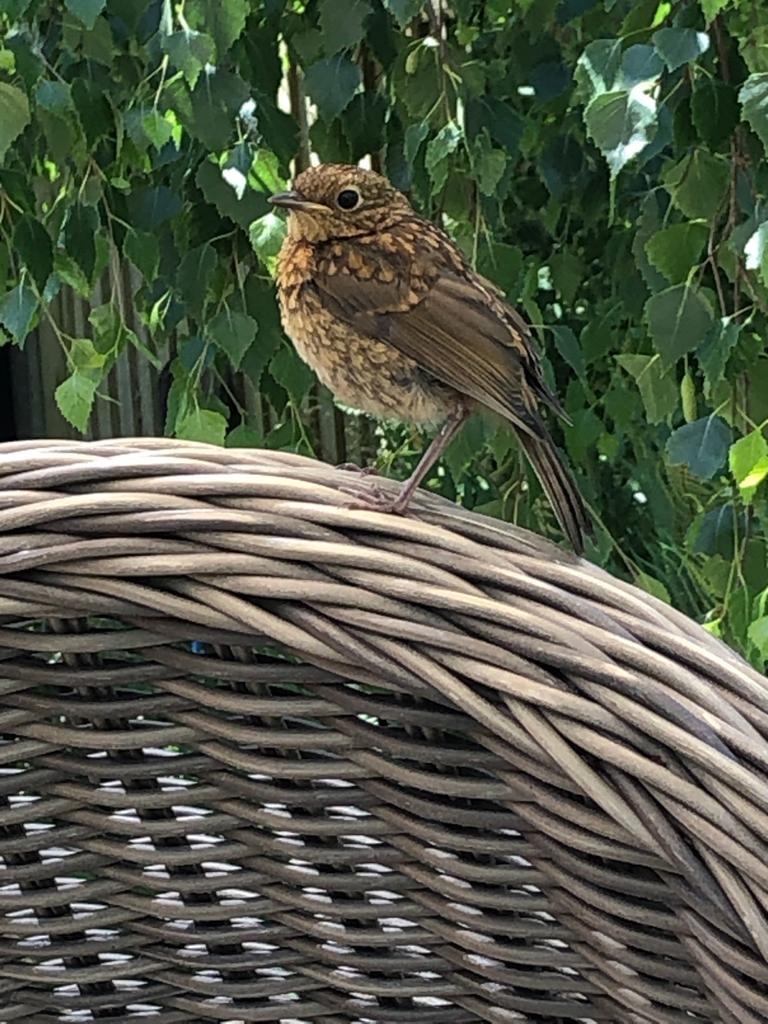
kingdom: Animalia
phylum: Chordata
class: Aves
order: Passeriformes
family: Muscicapidae
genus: Erithacus
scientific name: Erithacus rubecula
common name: European robin
